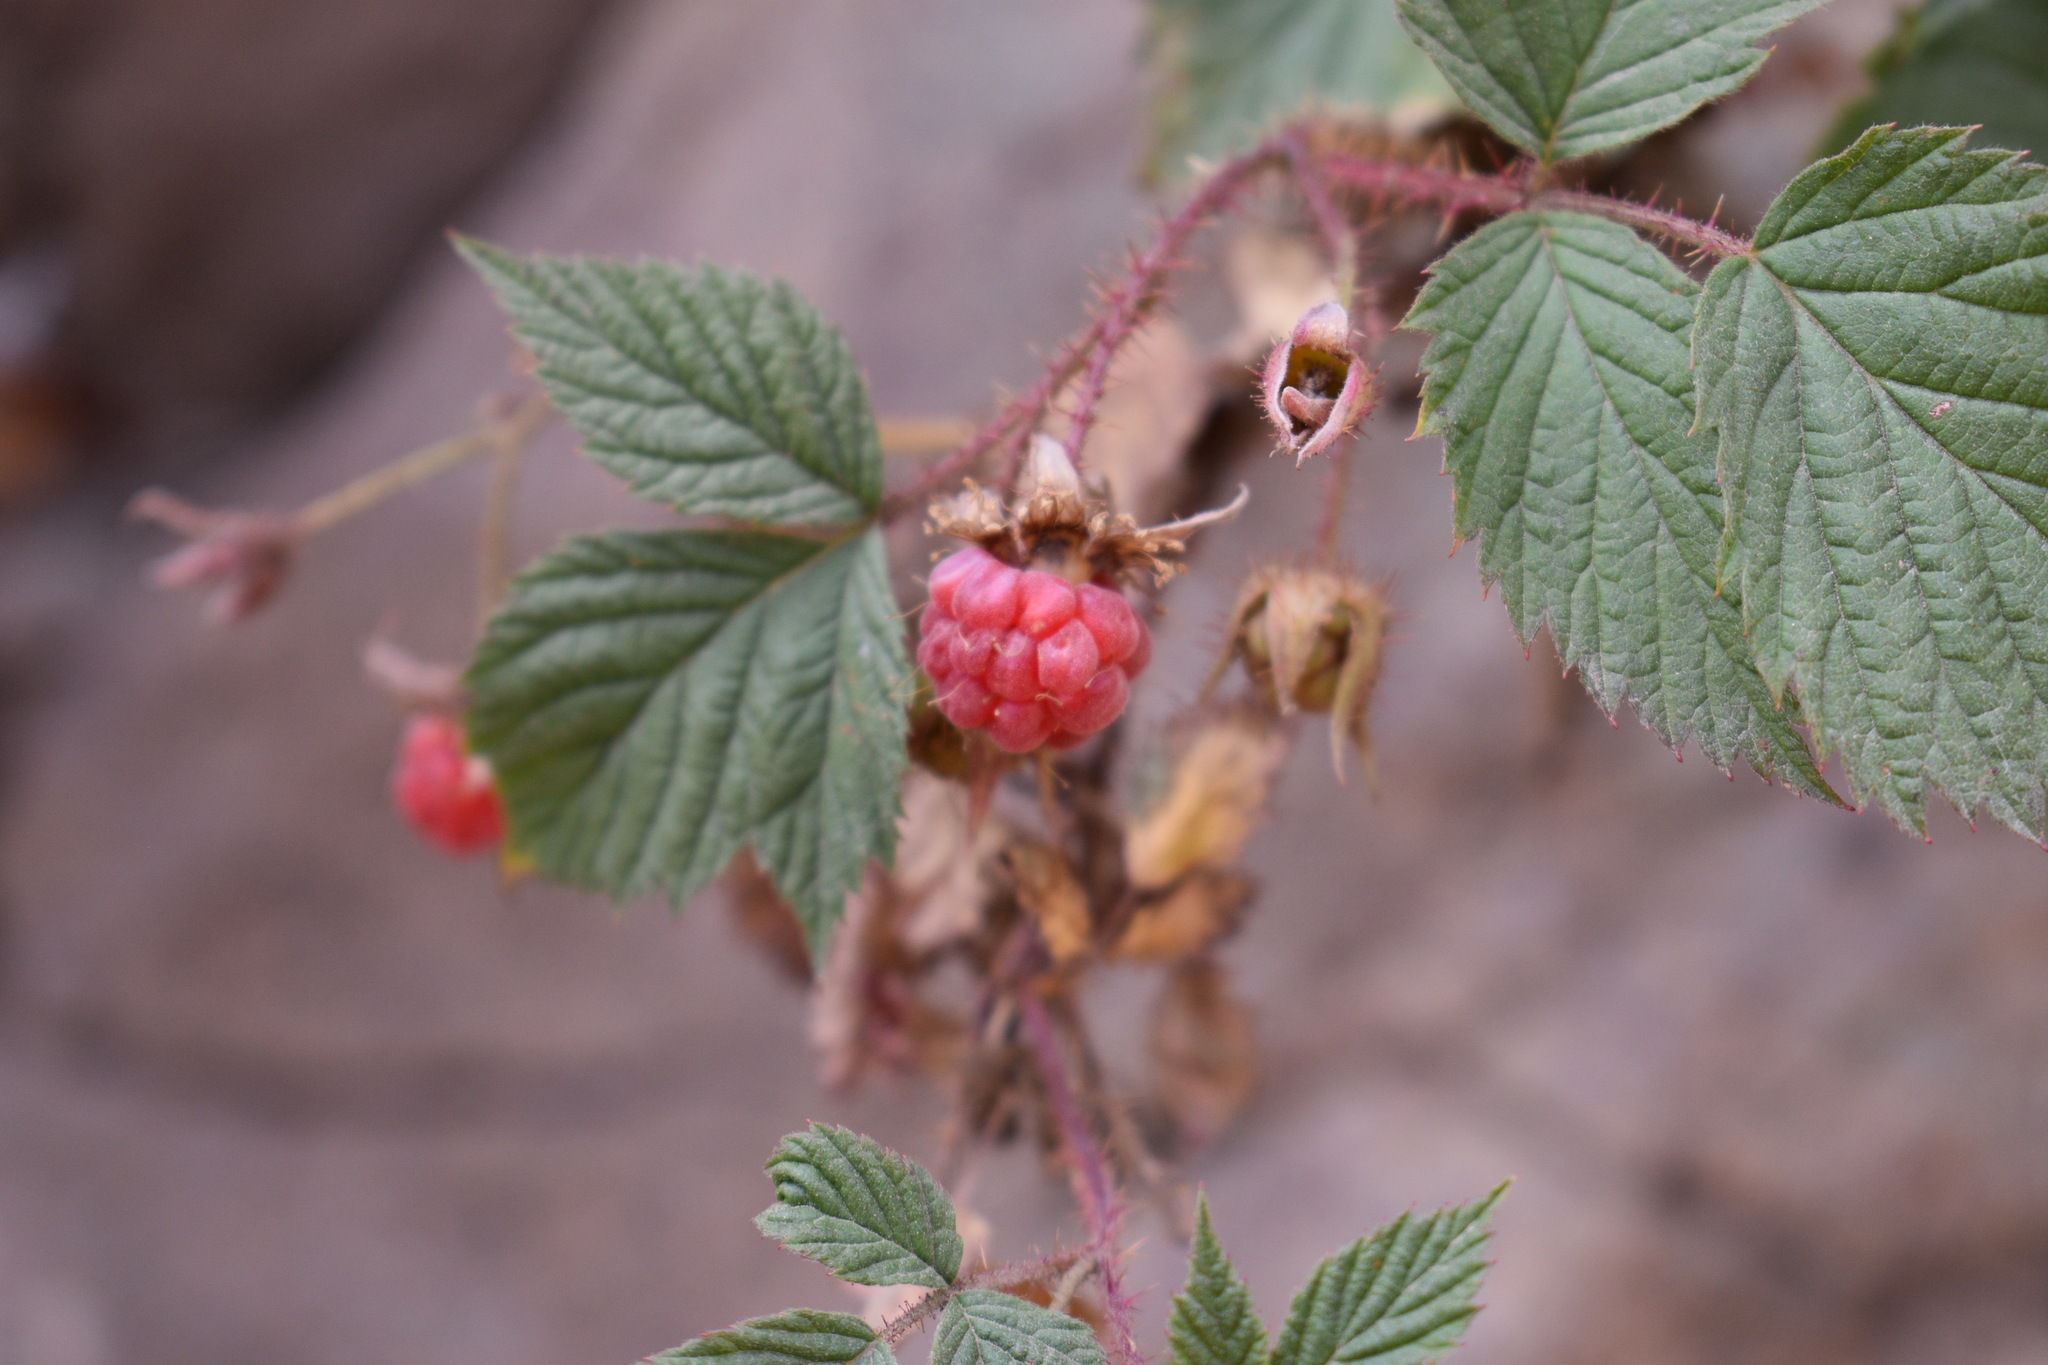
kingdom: Plantae
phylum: Tracheophyta
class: Magnoliopsida
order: Rosales
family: Rosaceae
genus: Rubus
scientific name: Rubus idaeus
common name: Raspberry
